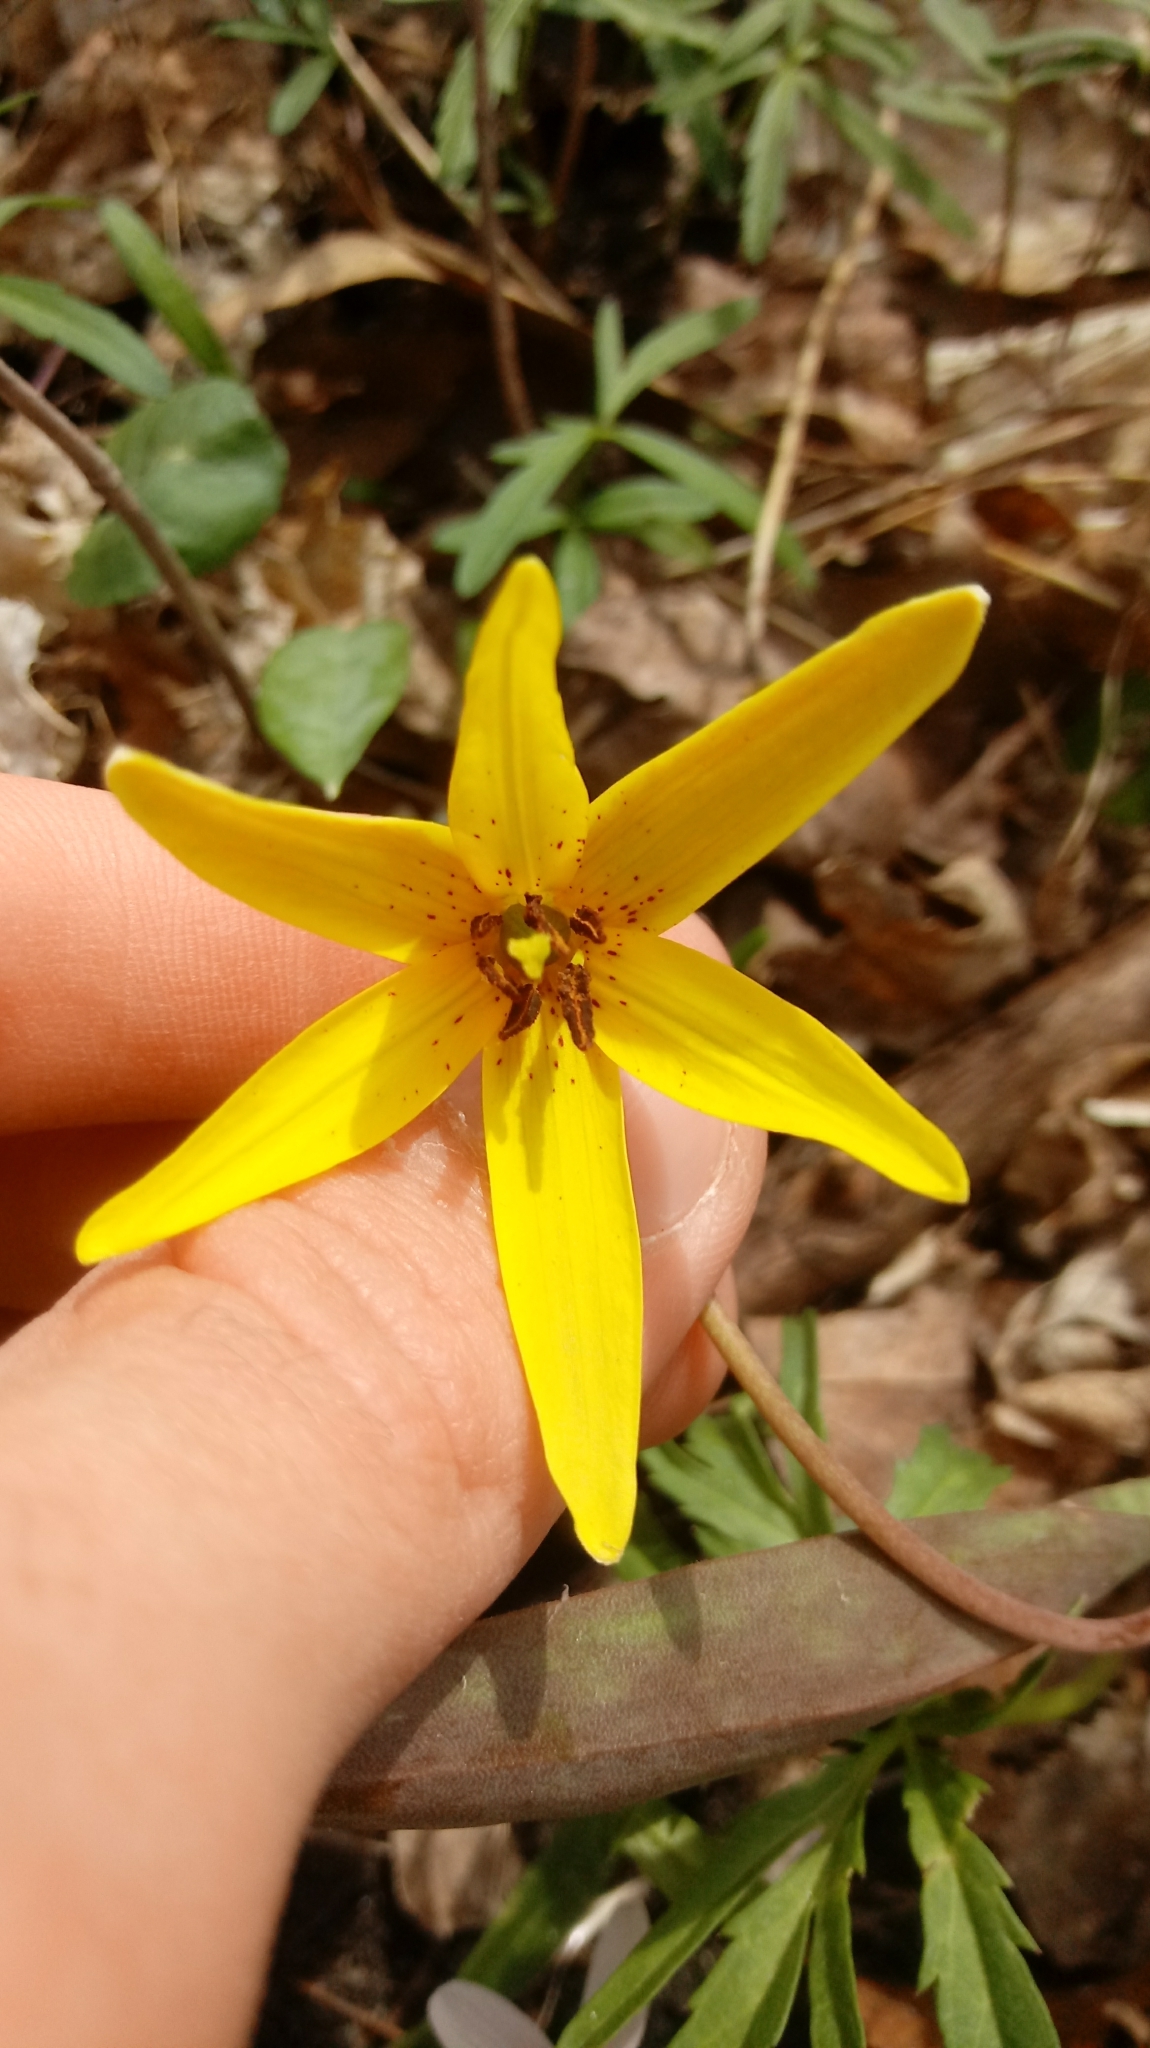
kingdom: Plantae
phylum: Tracheophyta
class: Liliopsida
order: Liliales
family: Liliaceae
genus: Erythronium
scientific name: Erythronium americanum
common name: Yellow adder's-tongue
